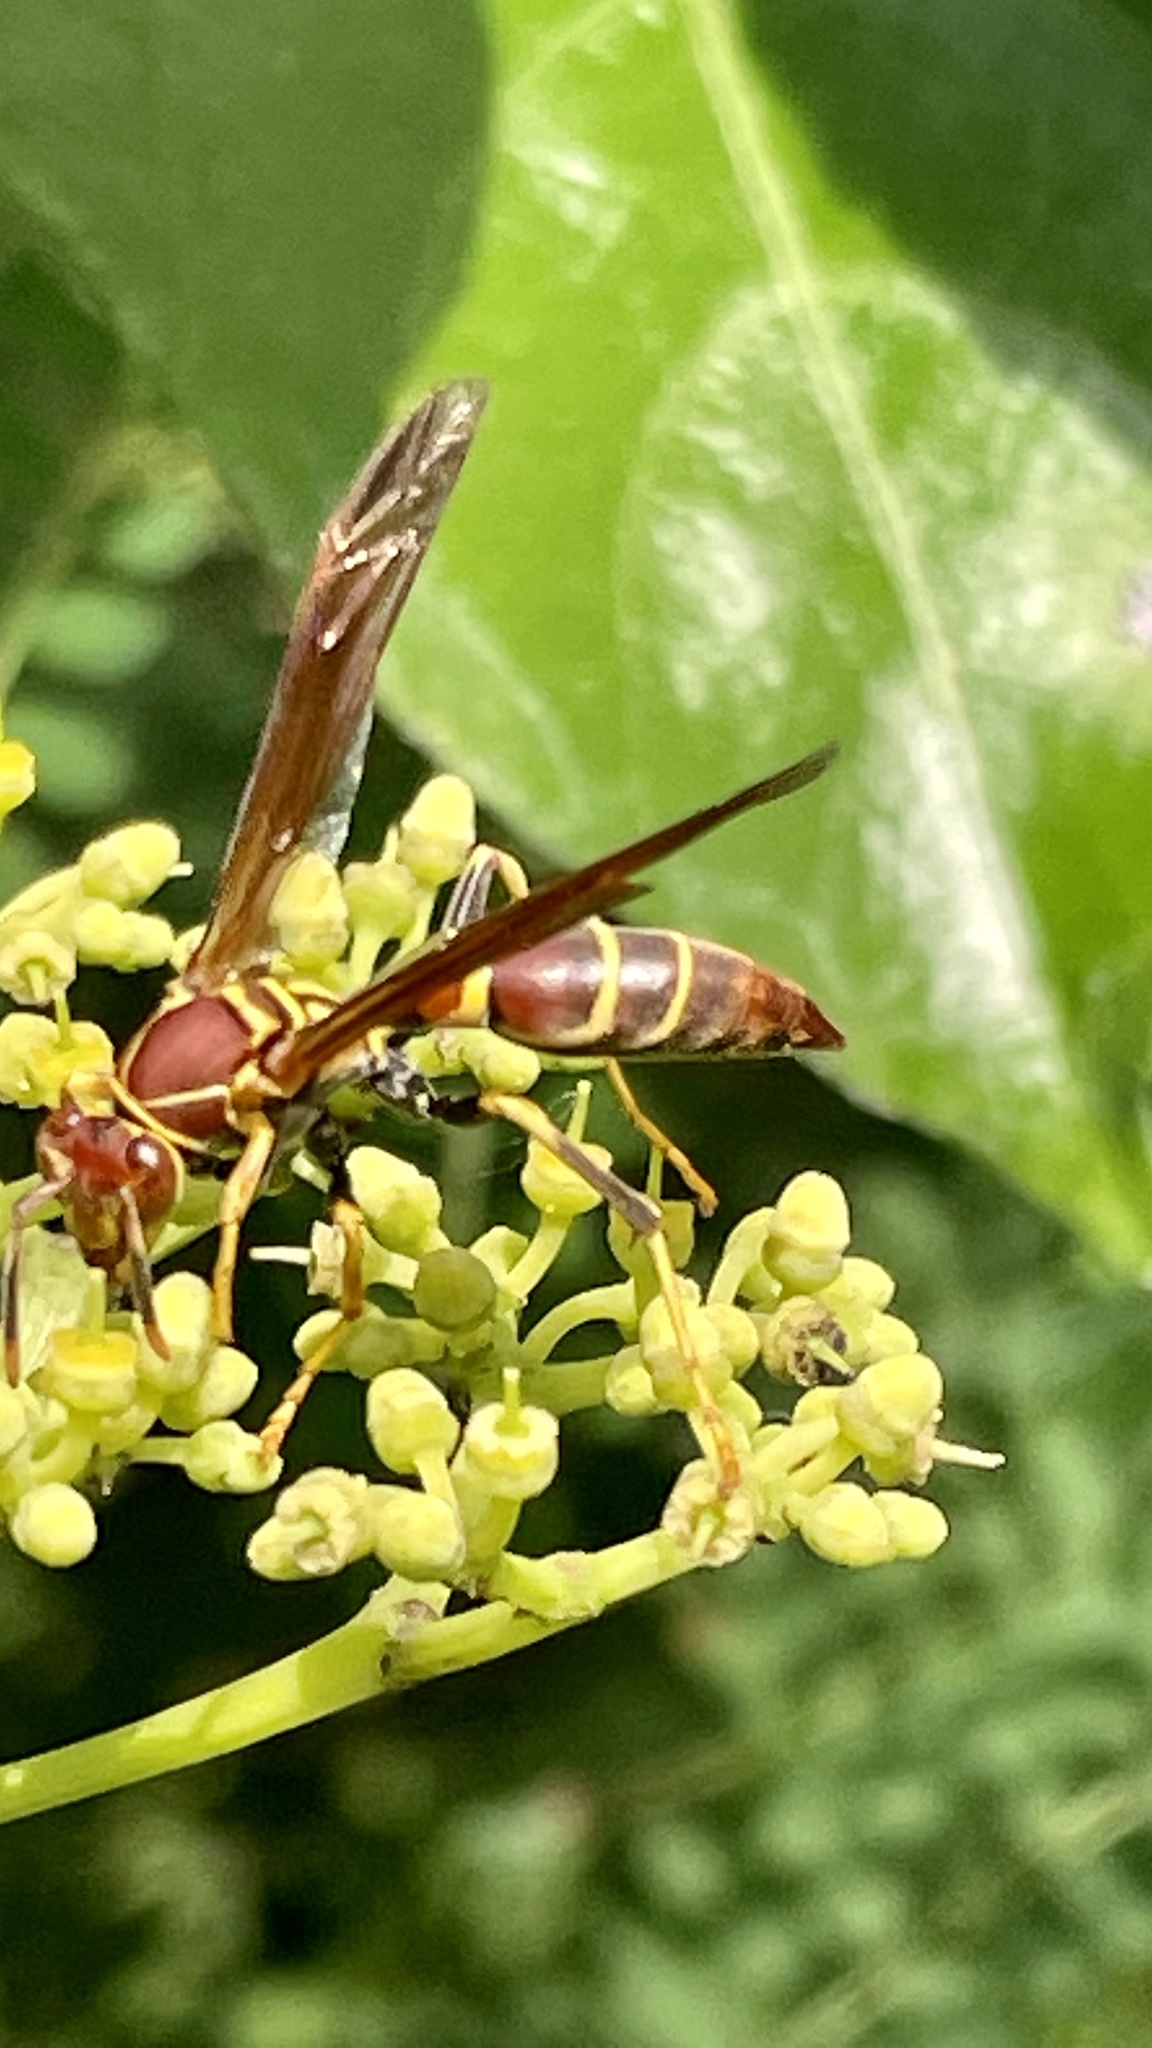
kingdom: Animalia
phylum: Arthropoda
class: Insecta
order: Hymenoptera
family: Eumenidae
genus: Polistes
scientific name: Polistes instabilis
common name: Unstable paper wasp
